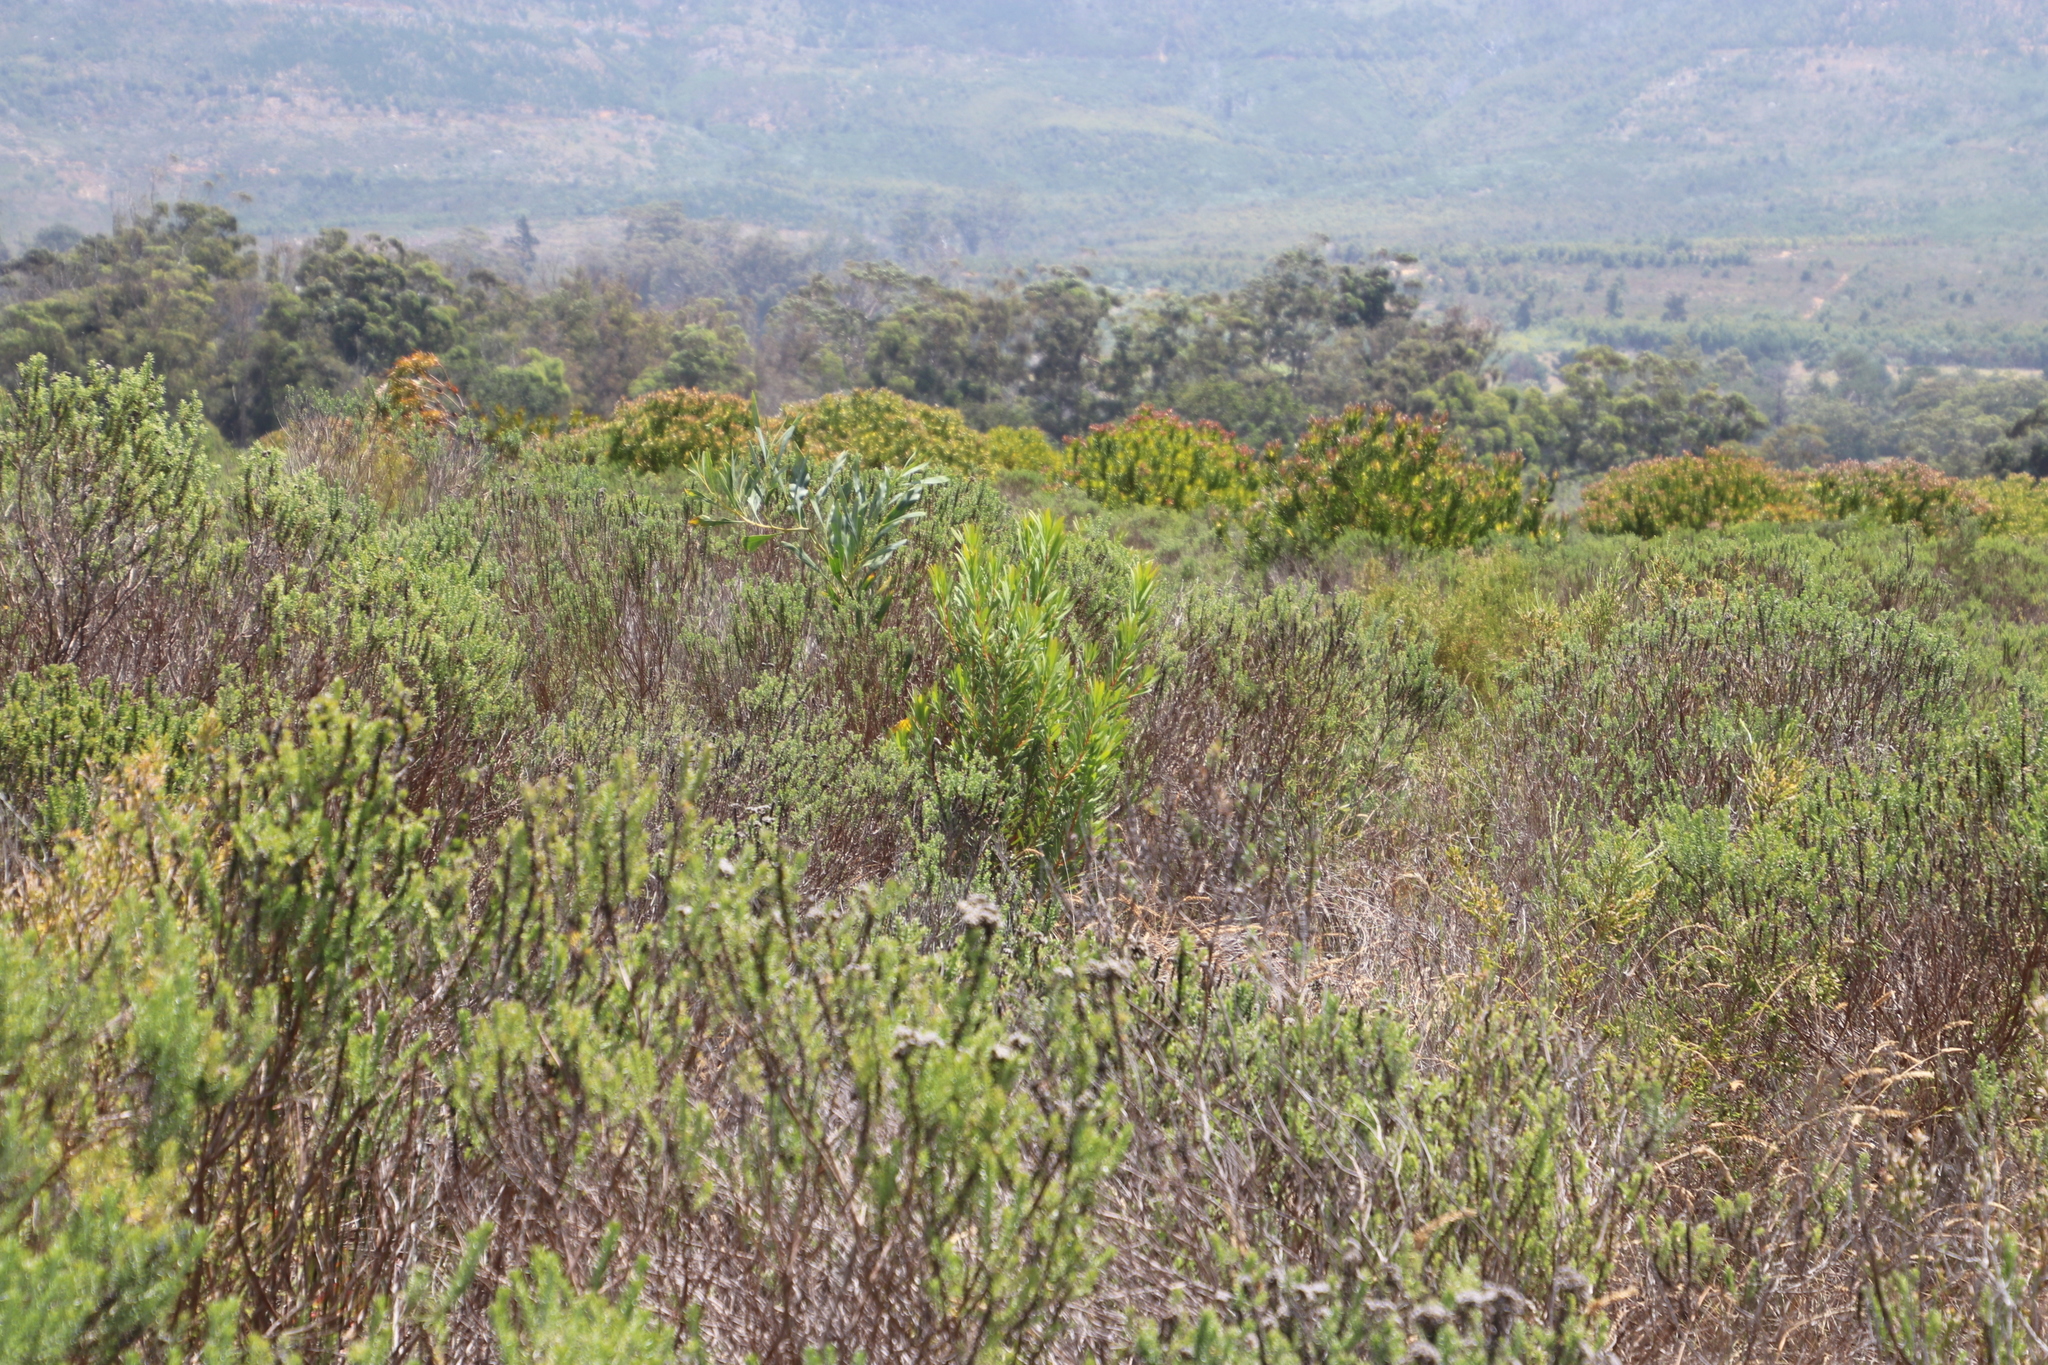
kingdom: Plantae
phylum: Tracheophyta
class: Magnoliopsida
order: Asterales
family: Asteraceae
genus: Metalasia
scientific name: Metalasia densa
